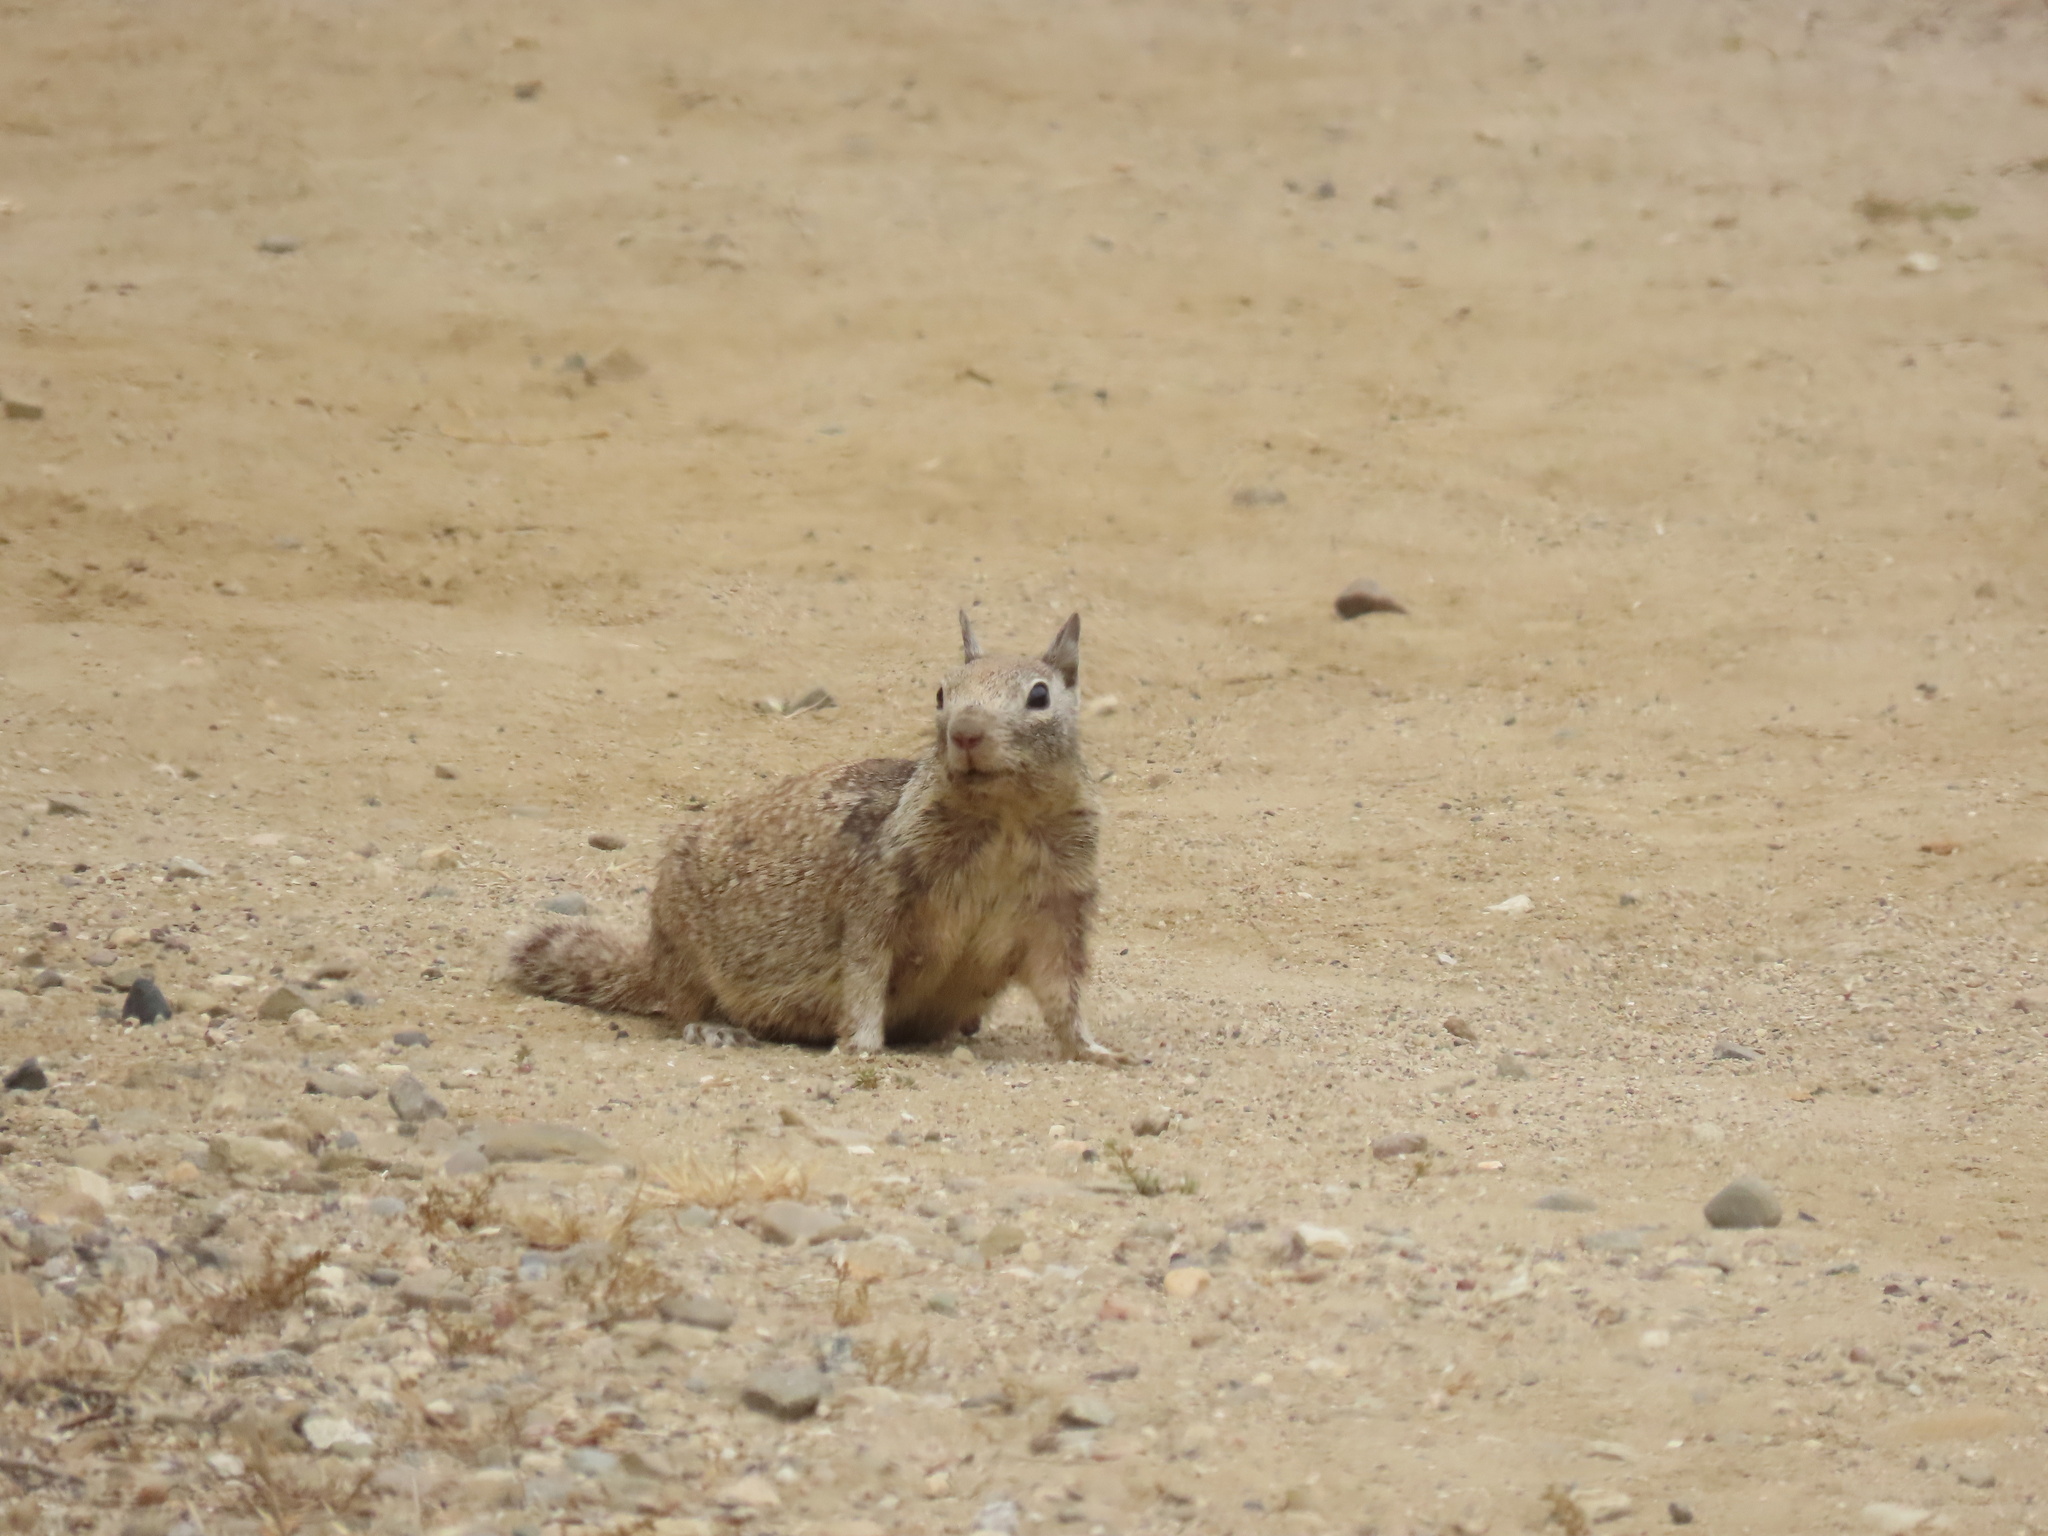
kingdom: Animalia
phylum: Chordata
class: Mammalia
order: Rodentia
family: Sciuridae
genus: Otospermophilus
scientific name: Otospermophilus beecheyi
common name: California ground squirrel
